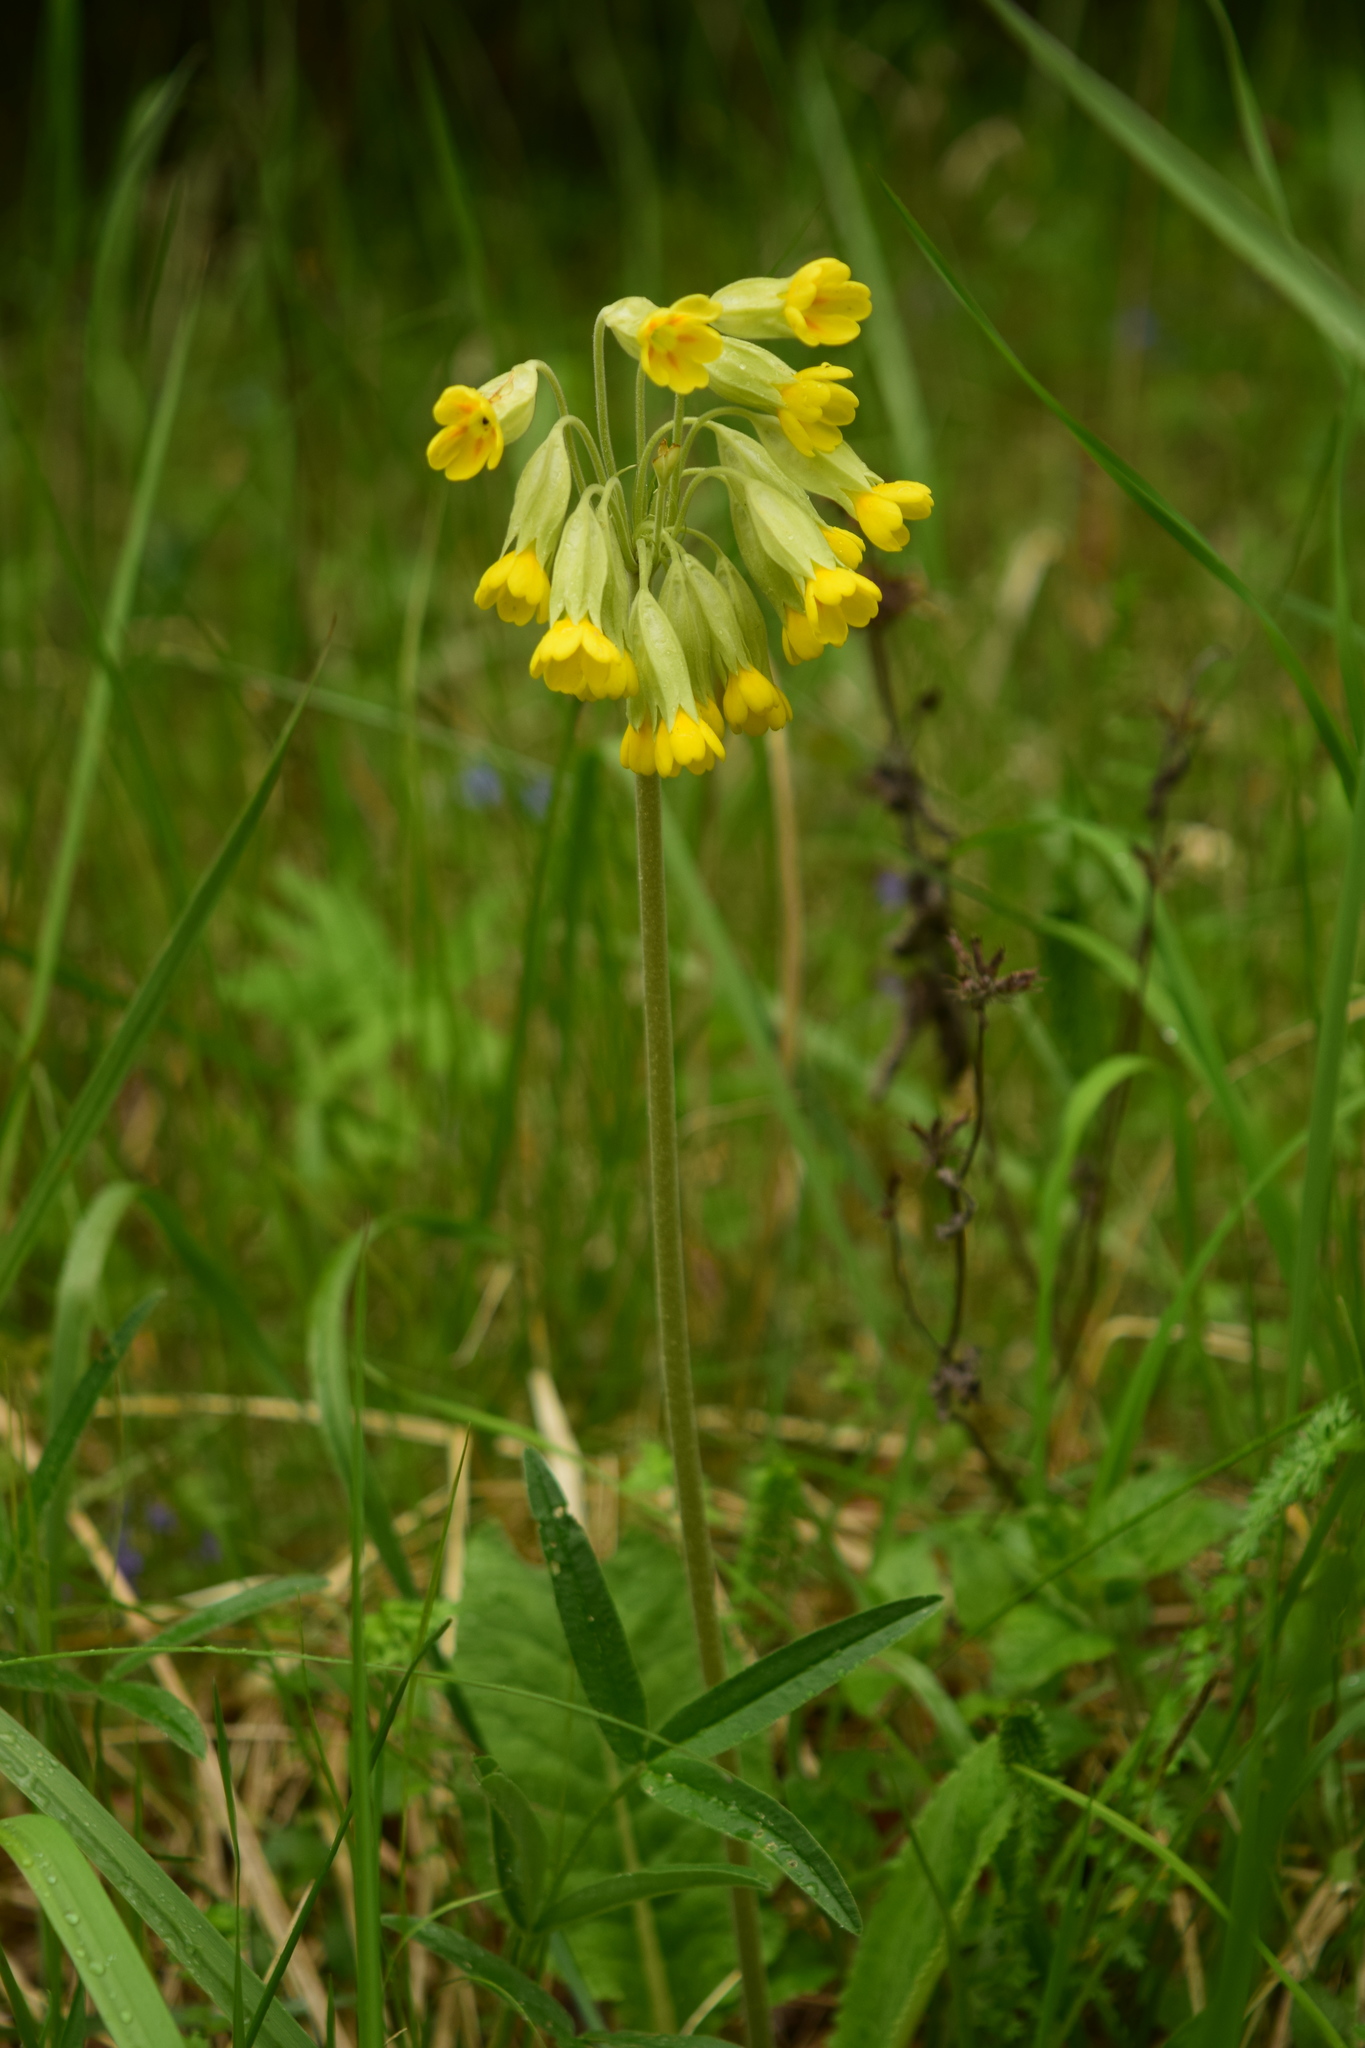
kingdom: Plantae
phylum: Tracheophyta
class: Magnoliopsida
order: Ericales
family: Primulaceae
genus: Primula
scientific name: Primula veris
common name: Cowslip
